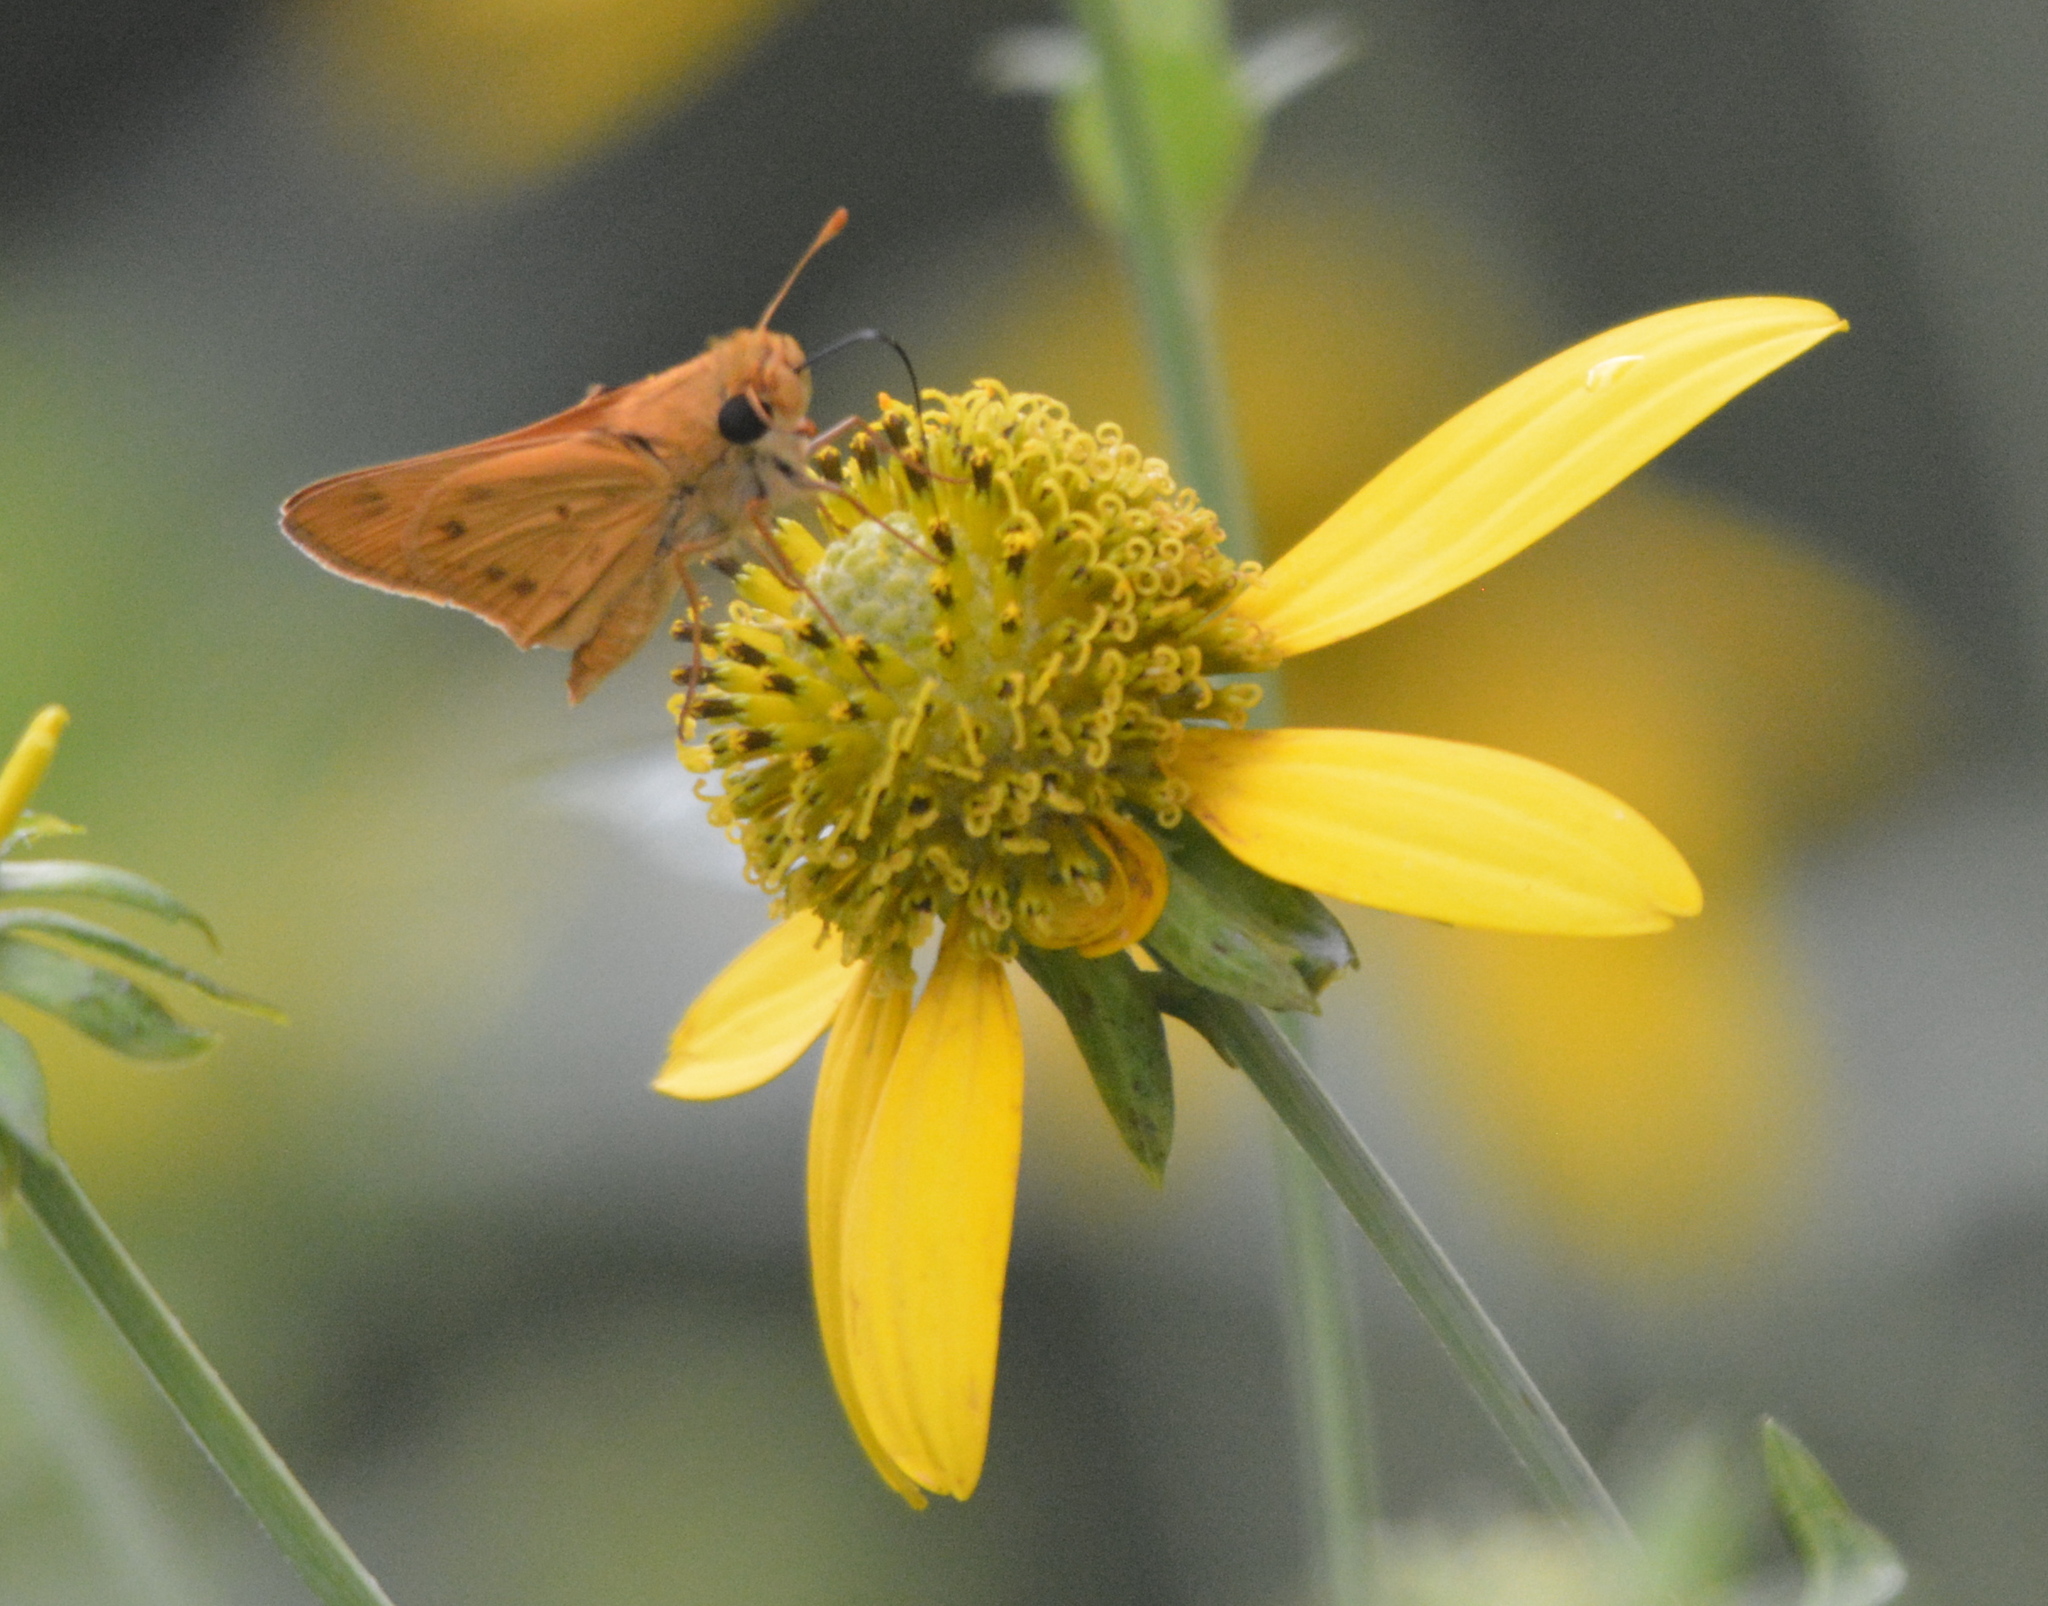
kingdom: Animalia
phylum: Arthropoda
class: Insecta
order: Lepidoptera
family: Hesperiidae
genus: Hylephila
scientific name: Hylephila phyleus
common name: Fiery skipper
